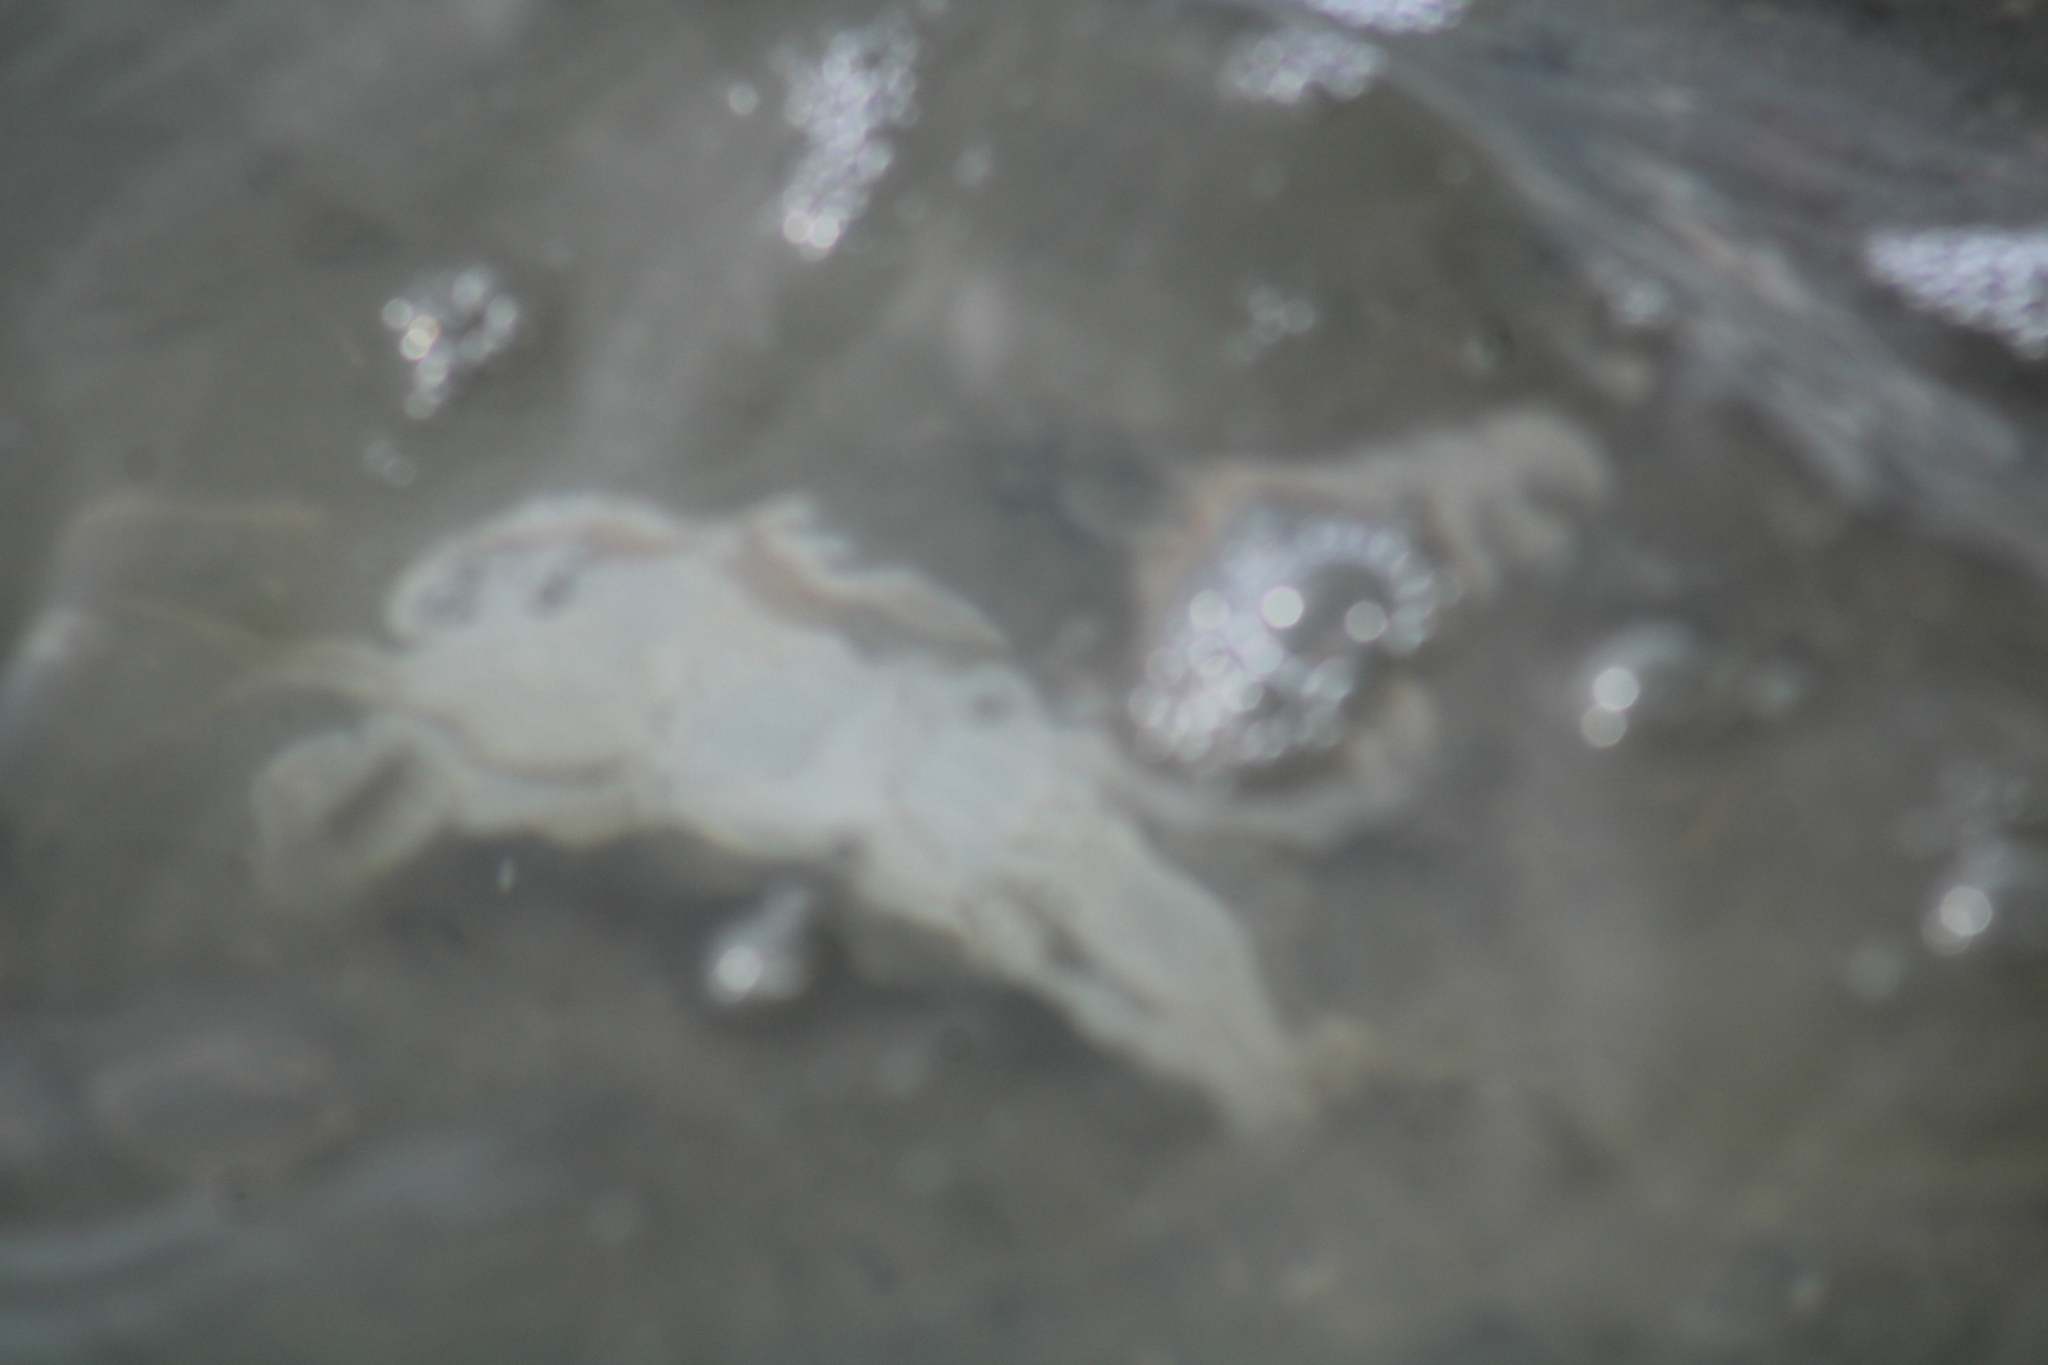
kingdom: Animalia
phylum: Arthropoda
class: Malacostraca
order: Decapoda
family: Portunidae
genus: Arenaeus
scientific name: Arenaeus cribrarius
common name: Speckled crab
